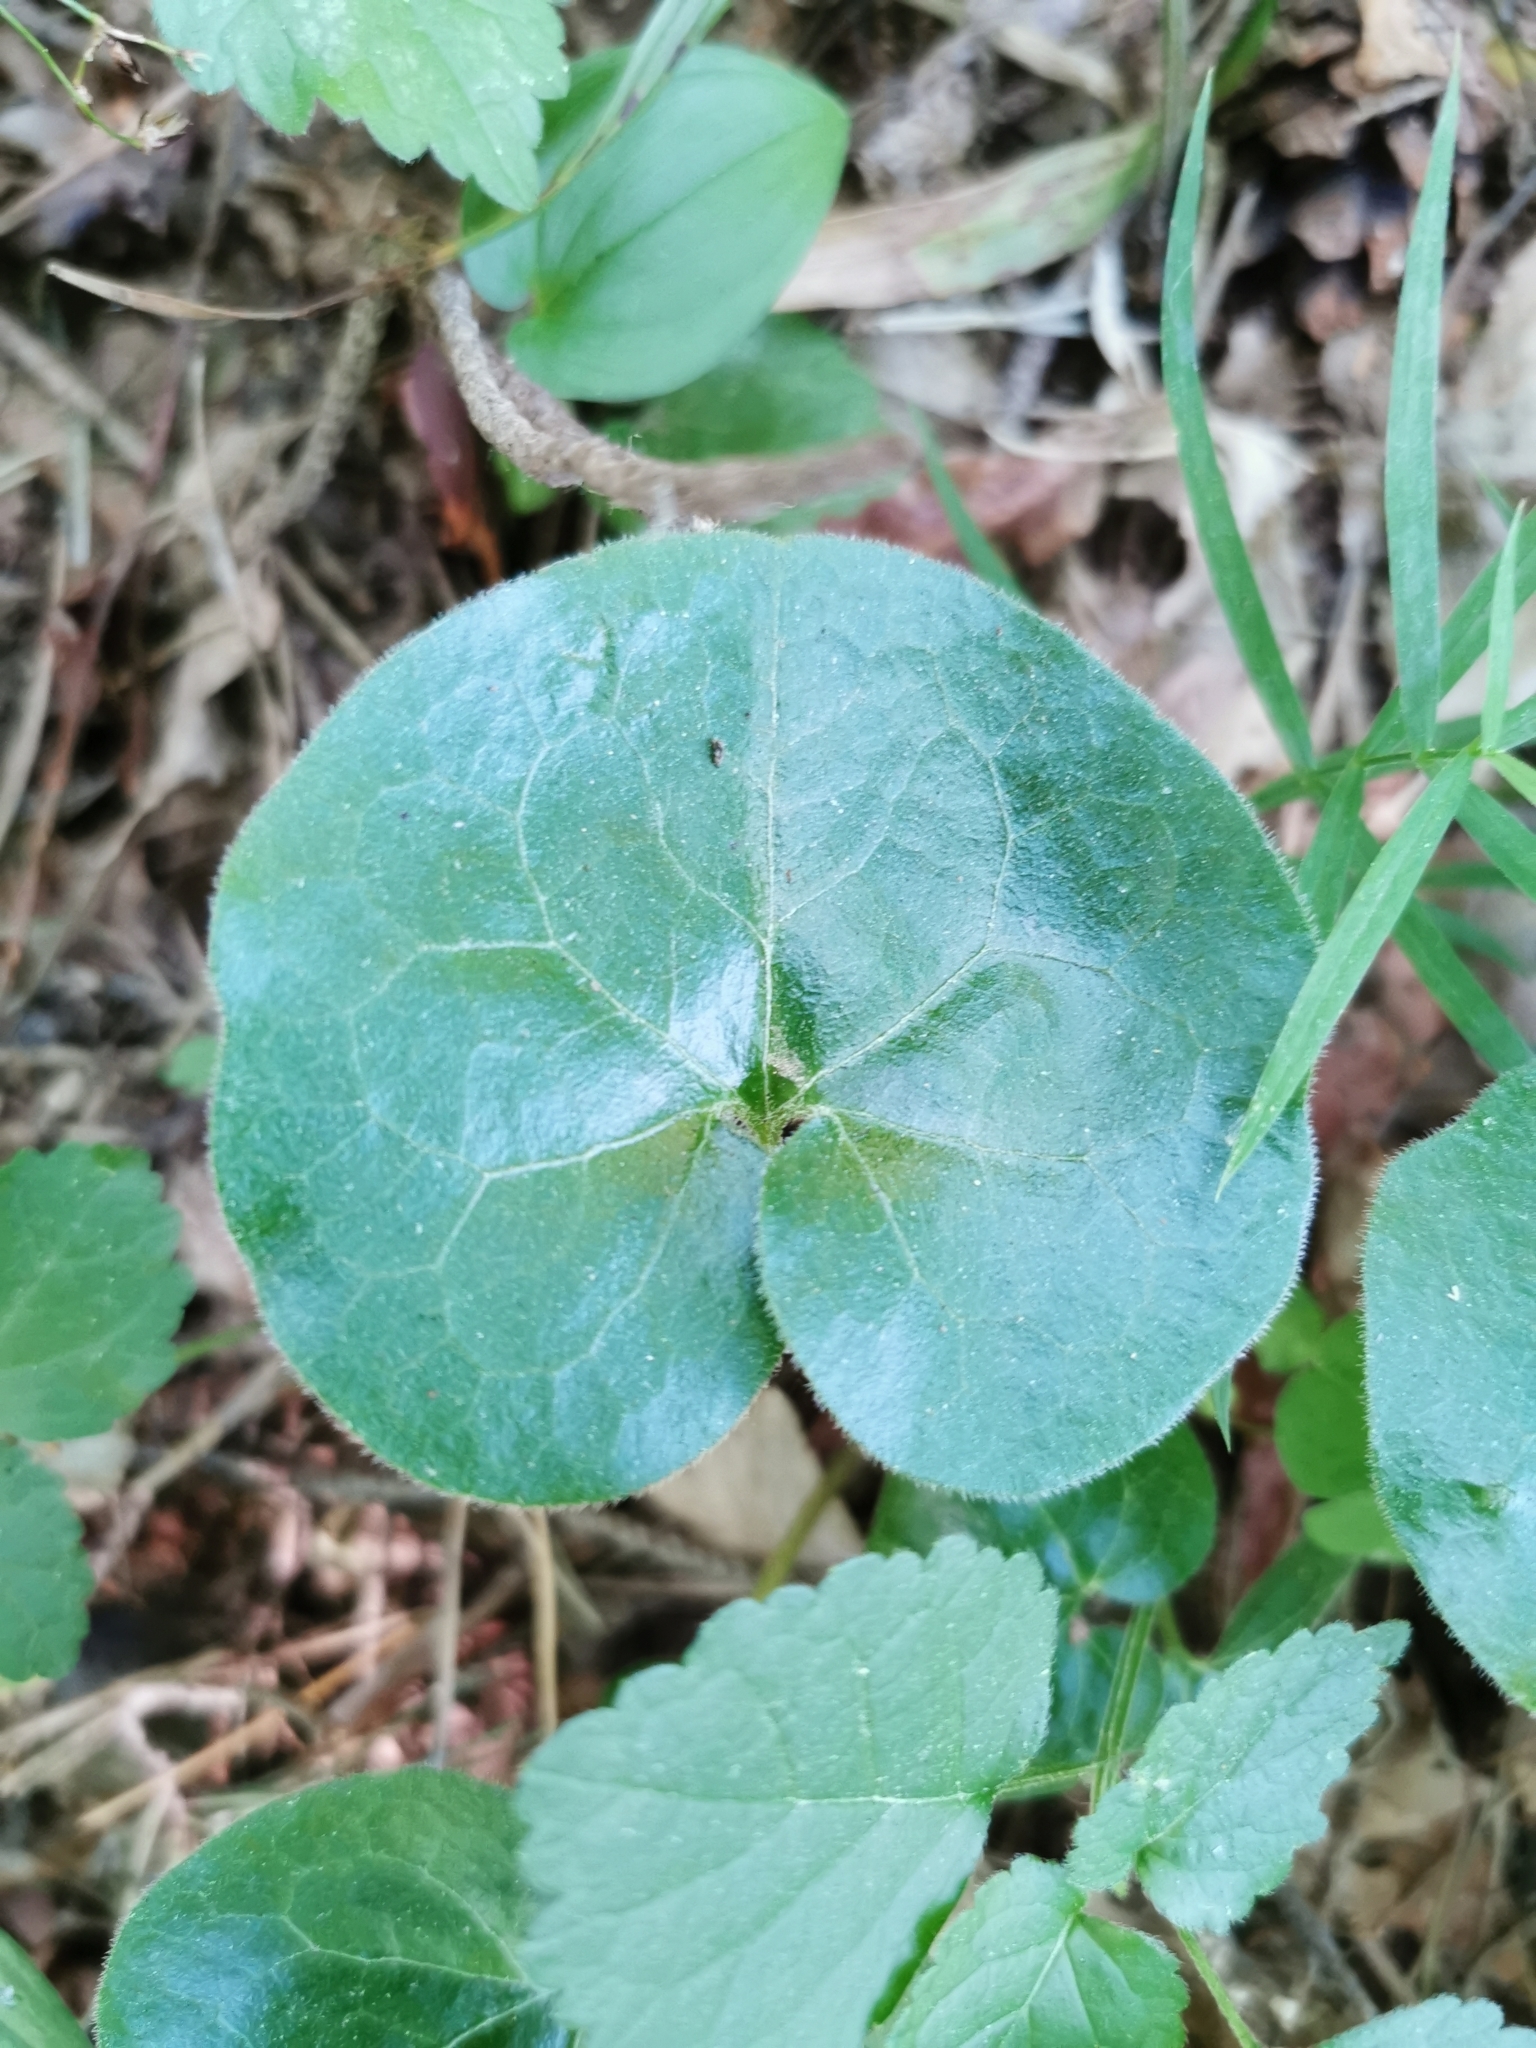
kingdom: Plantae
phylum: Tracheophyta
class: Magnoliopsida
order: Piperales
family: Aristolochiaceae
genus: Asarum
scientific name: Asarum europaeum
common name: Asarabacca
